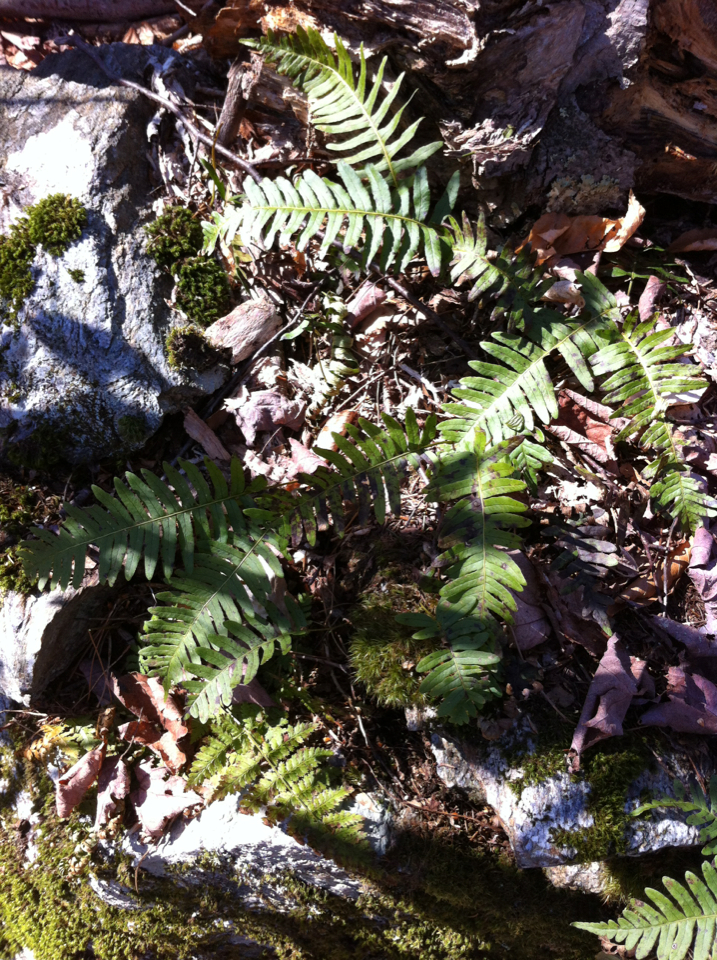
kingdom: Plantae
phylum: Tracheophyta
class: Polypodiopsida
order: Polypodiales
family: Polypodiaceae
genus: Polypodium
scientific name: Polypodium virginianum
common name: American wall fern
